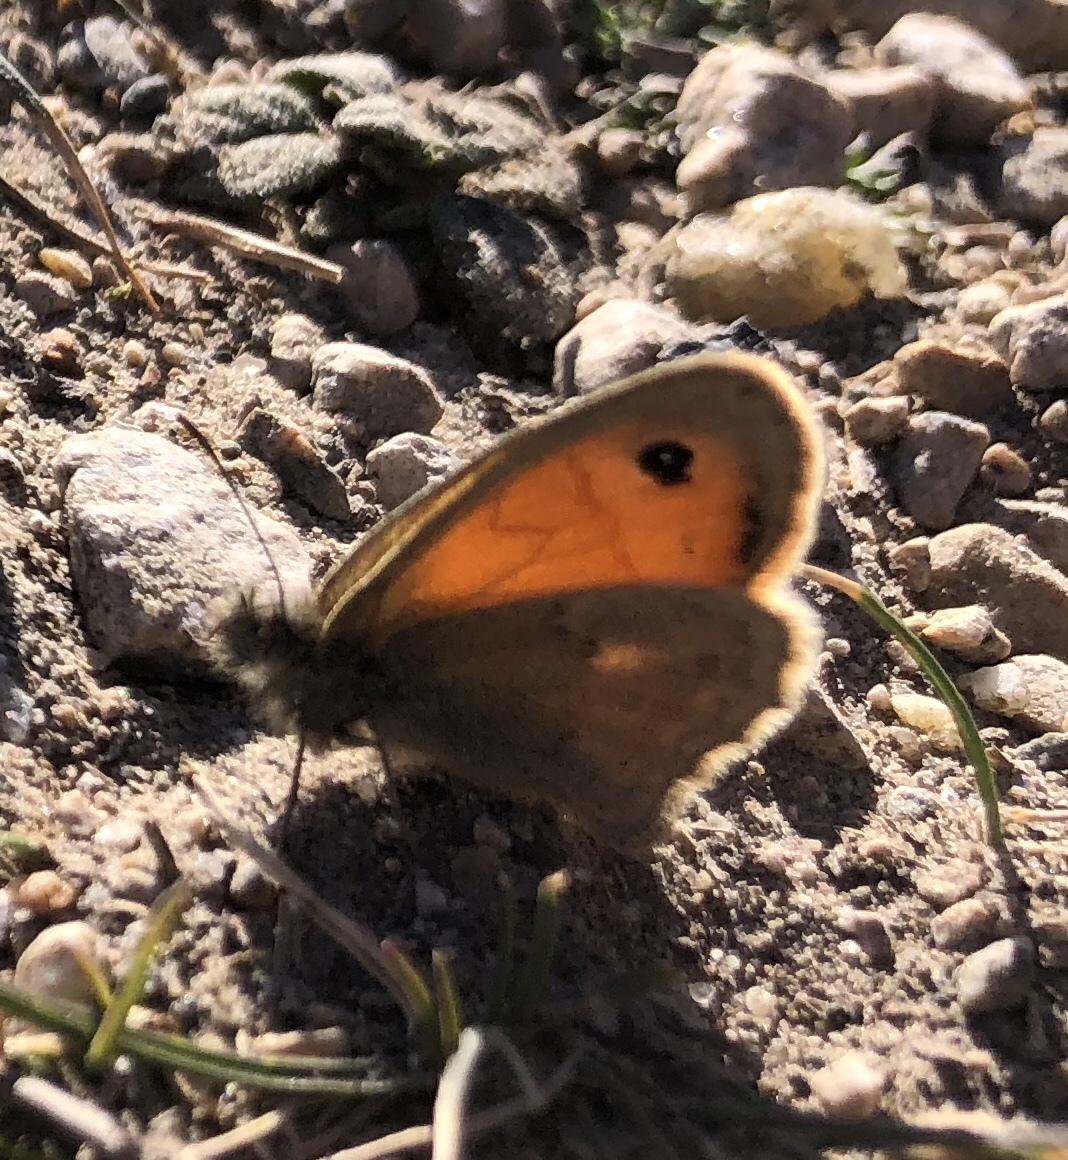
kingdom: Animalia
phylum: Arthropoda
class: Insecta
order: Lepidoptera
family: Nymphalidae
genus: Coenonympha
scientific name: Coenonympha pamphilus
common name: Small heath
